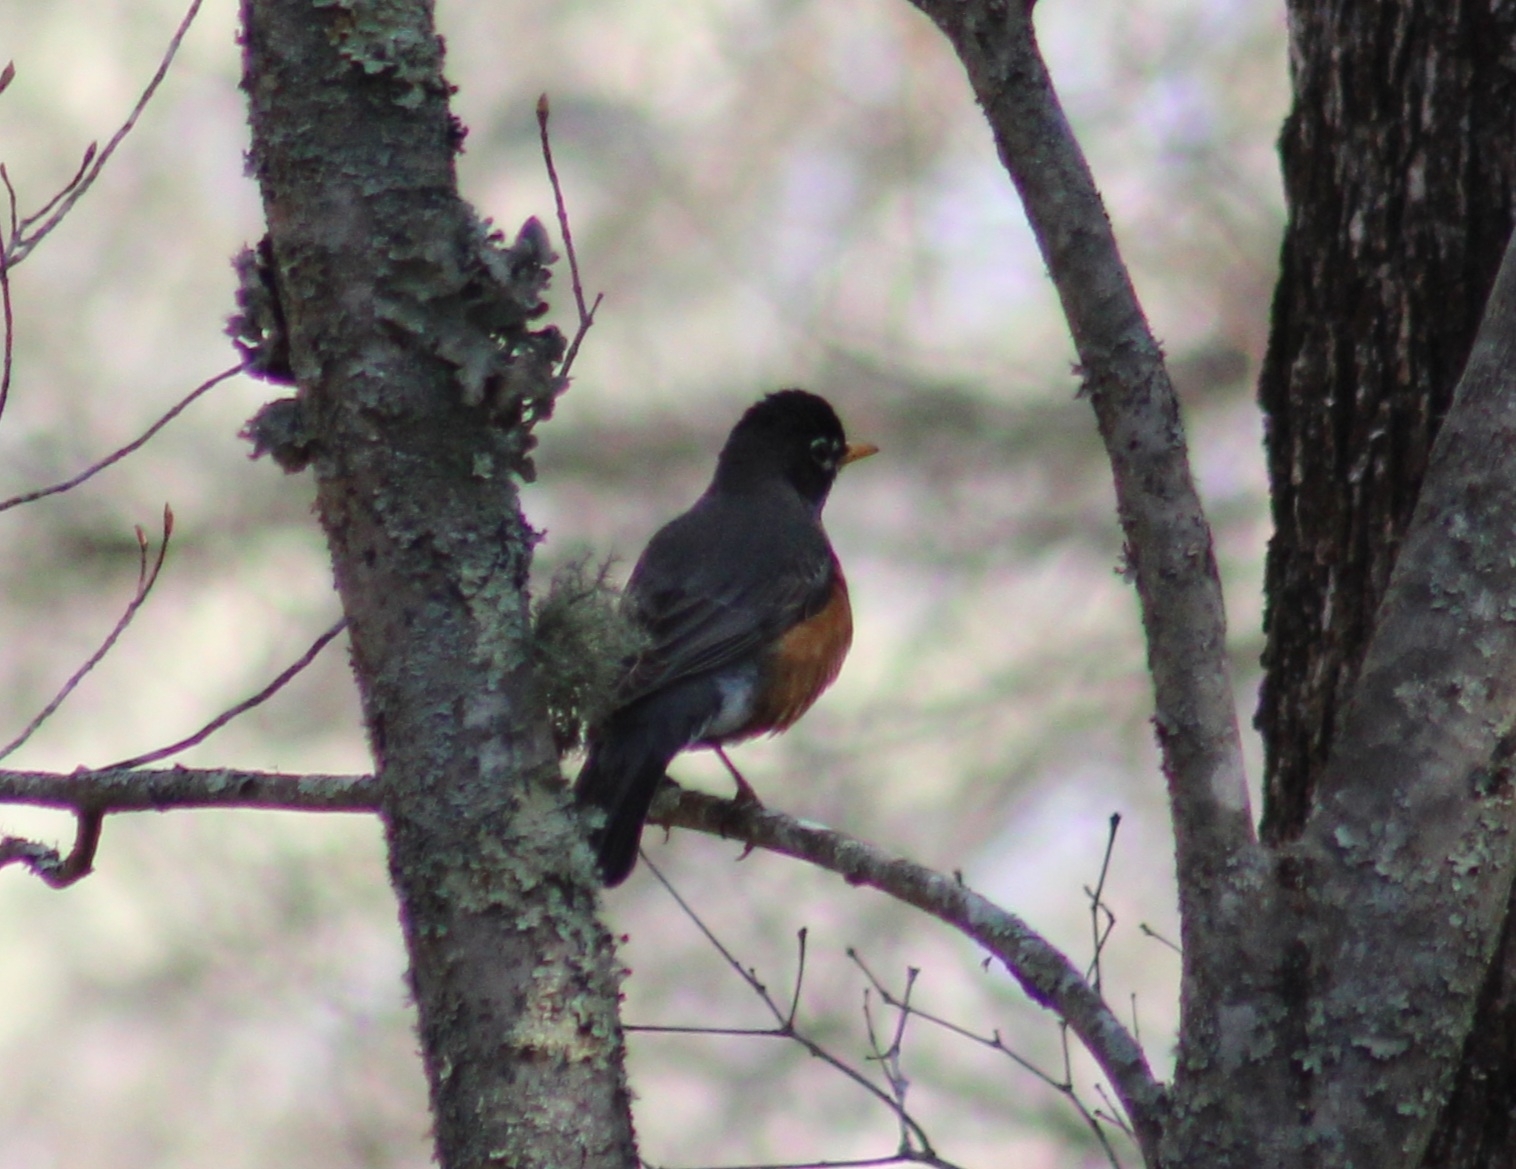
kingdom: Animalia
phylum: Chordata
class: Aves
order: Passeriformes
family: Turdidae
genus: Turdus
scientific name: Turdus migratorius
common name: American robin
